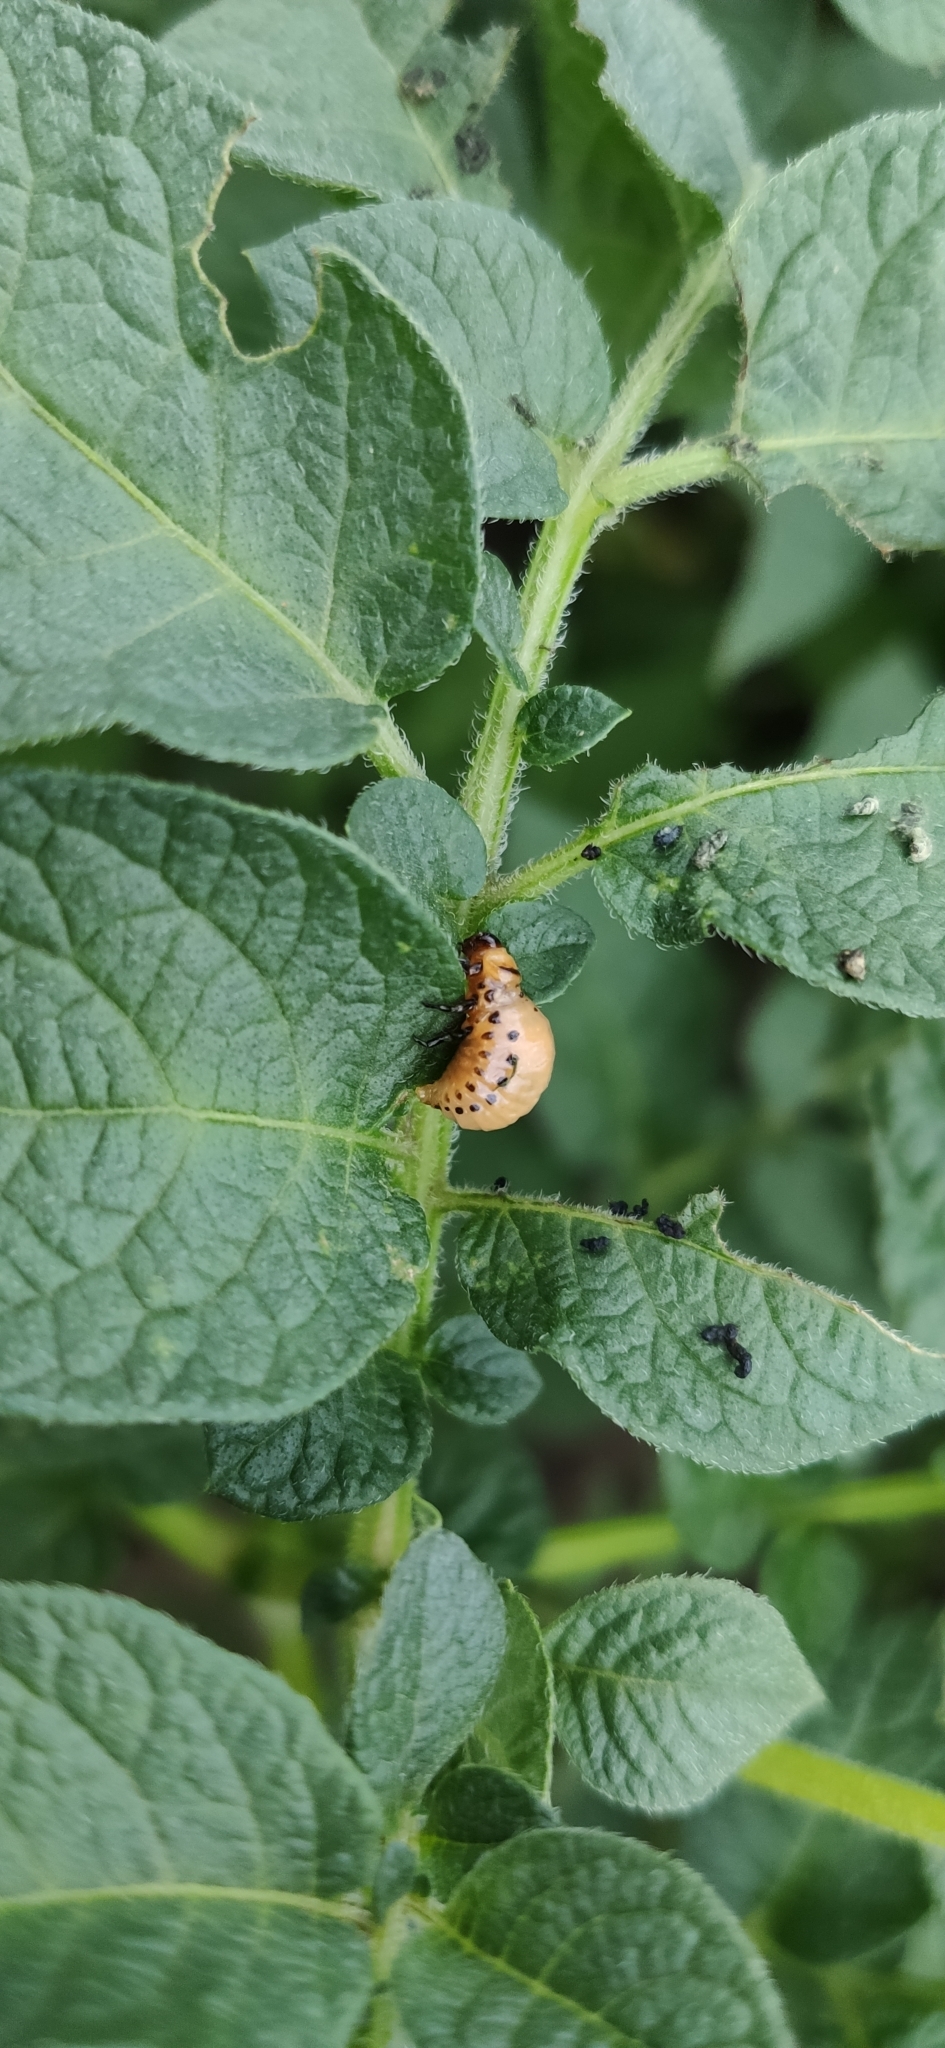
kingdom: Animalia
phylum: Arthropoda
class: Insecta
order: Coleoptera
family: Chrysomelidae
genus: Leptinotarsa
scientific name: Leptinotarsa decemlineata
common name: Colorado potato beetle
